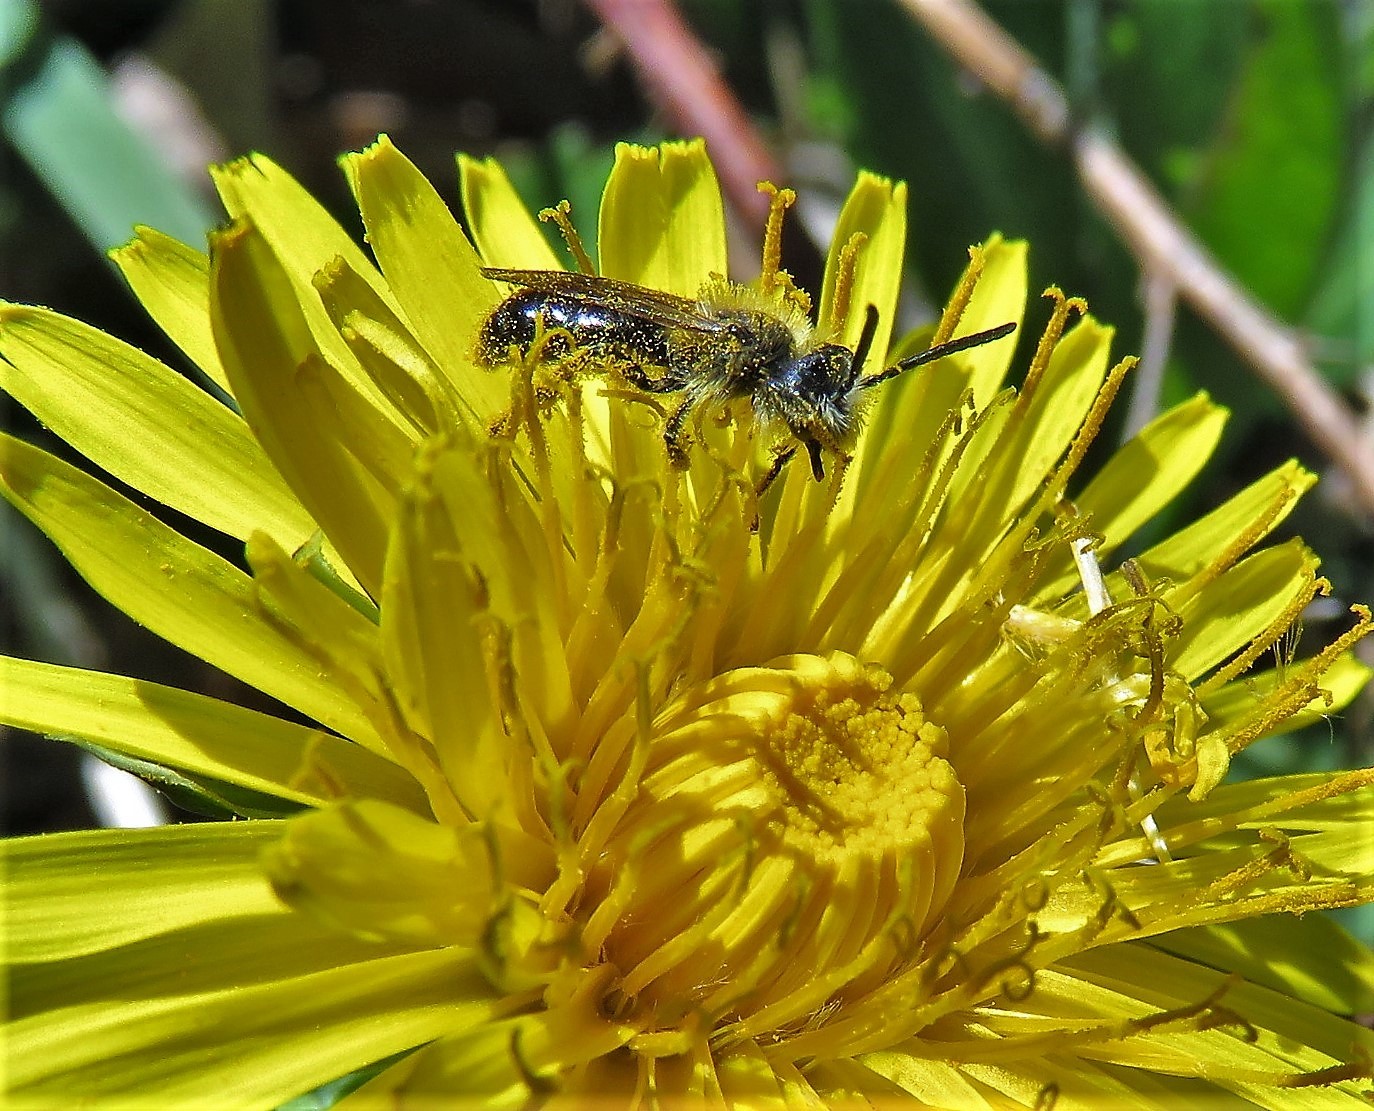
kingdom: Animalia
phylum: Arthropoda
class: Insecta
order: Hymenoptera
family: Andrenidae
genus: Andrena
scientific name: Andrena
